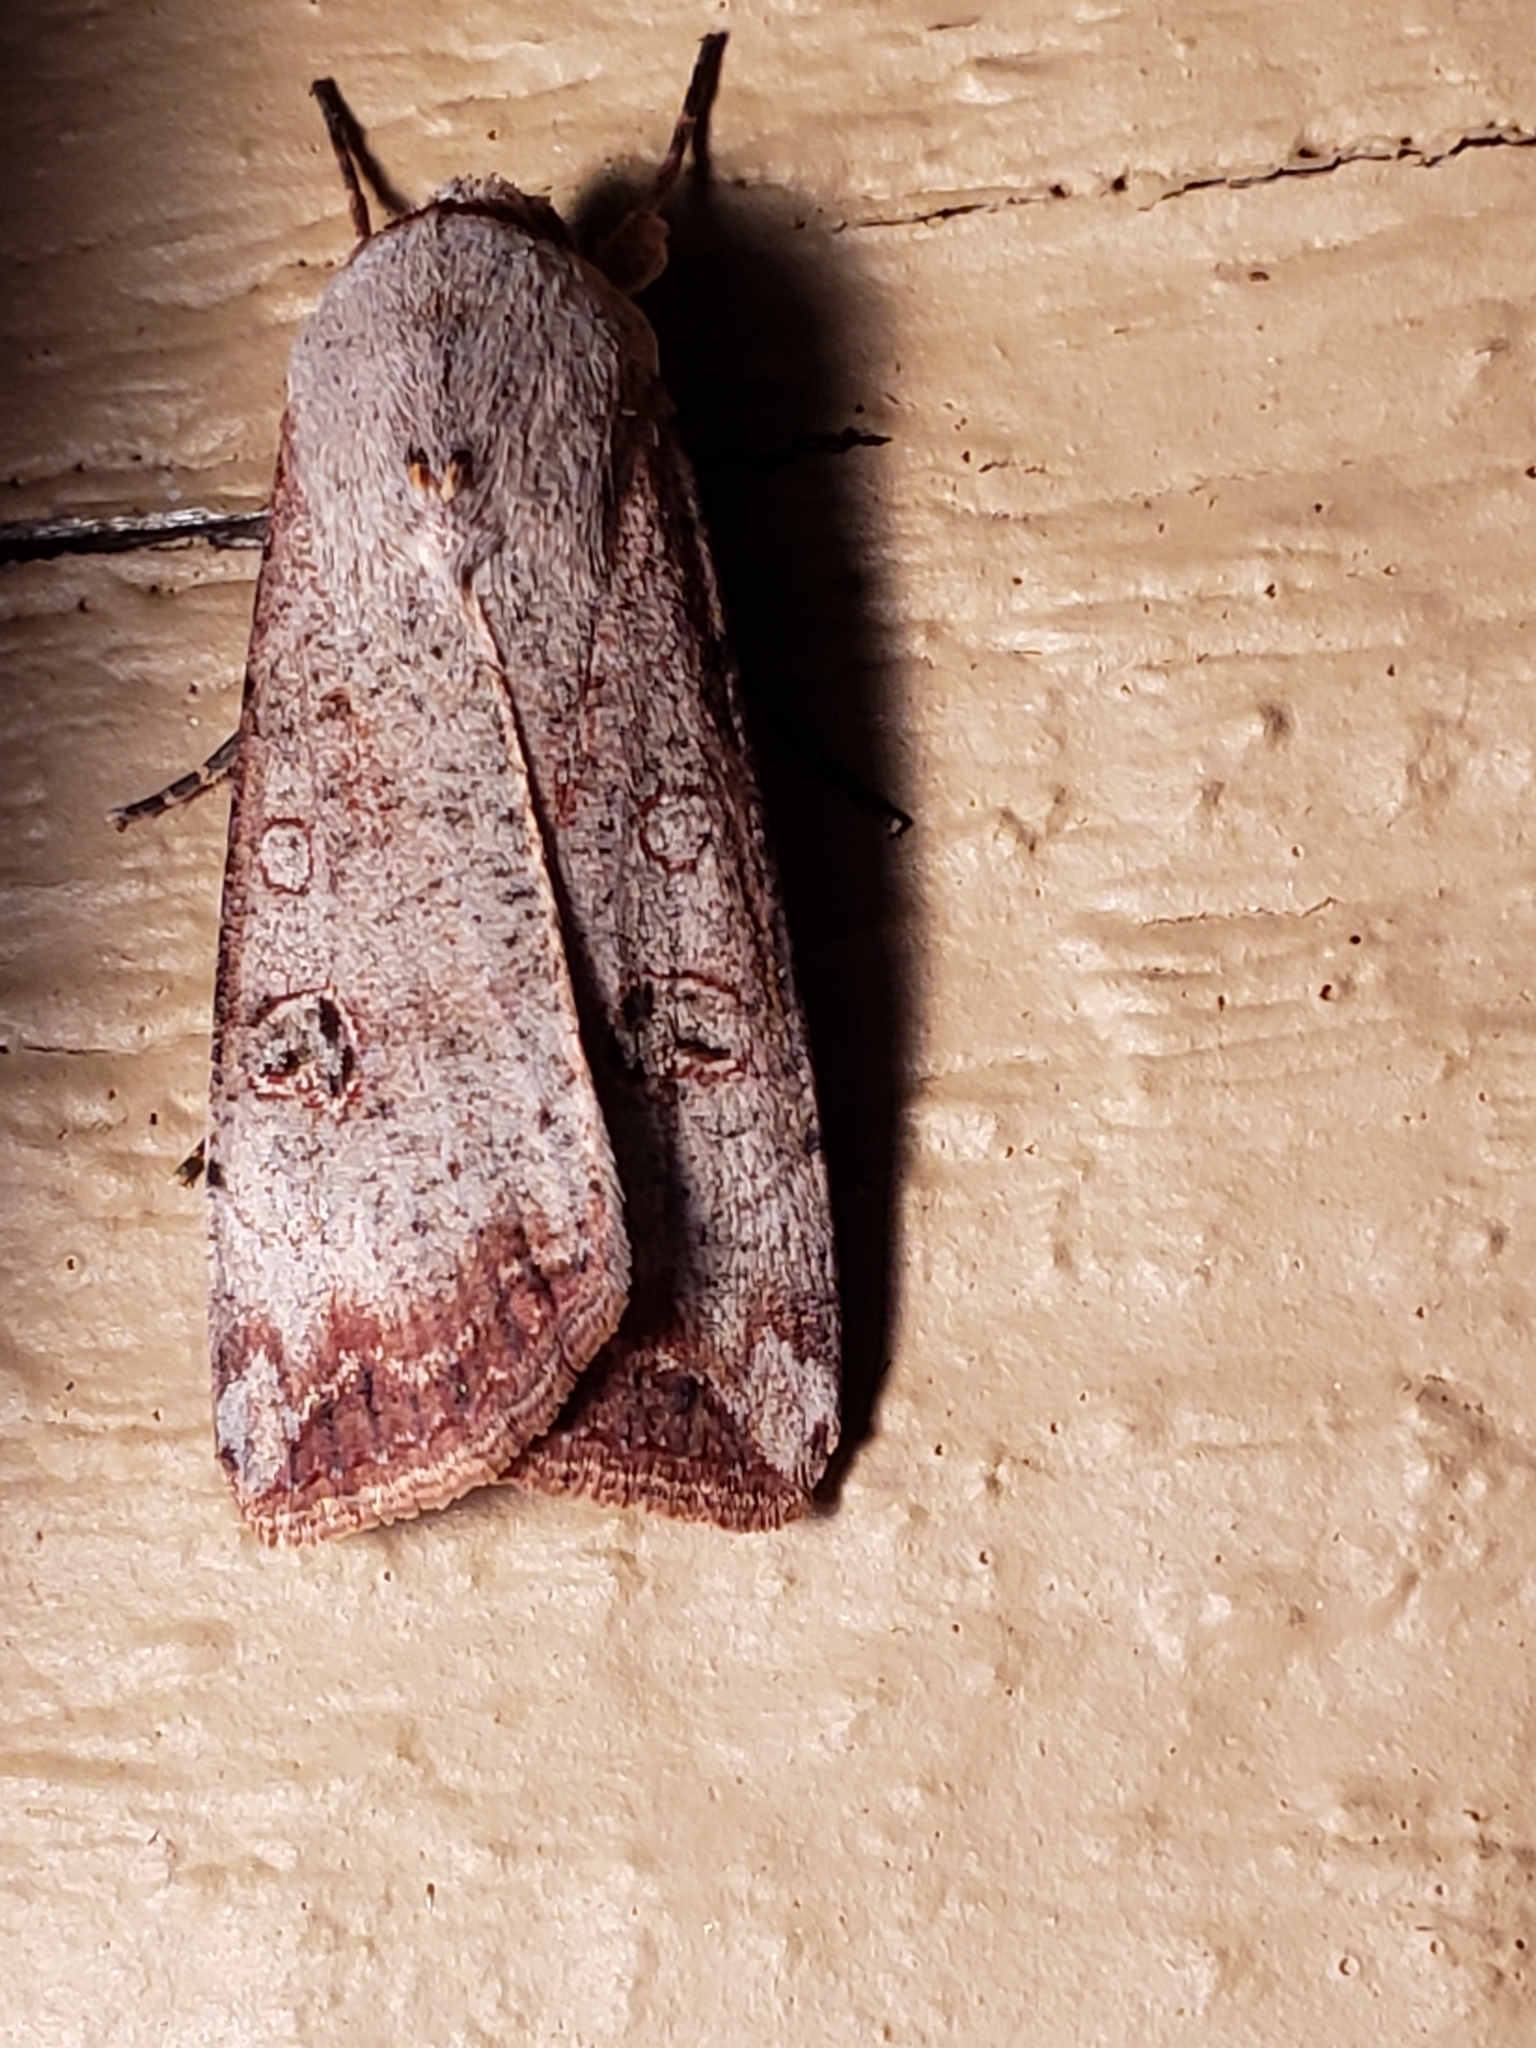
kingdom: Animalia
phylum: Arthropoda
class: Insecta
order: Lepidoptera
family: Noctuidae
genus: Anicla
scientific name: Anicla infecta
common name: Green cutworm
